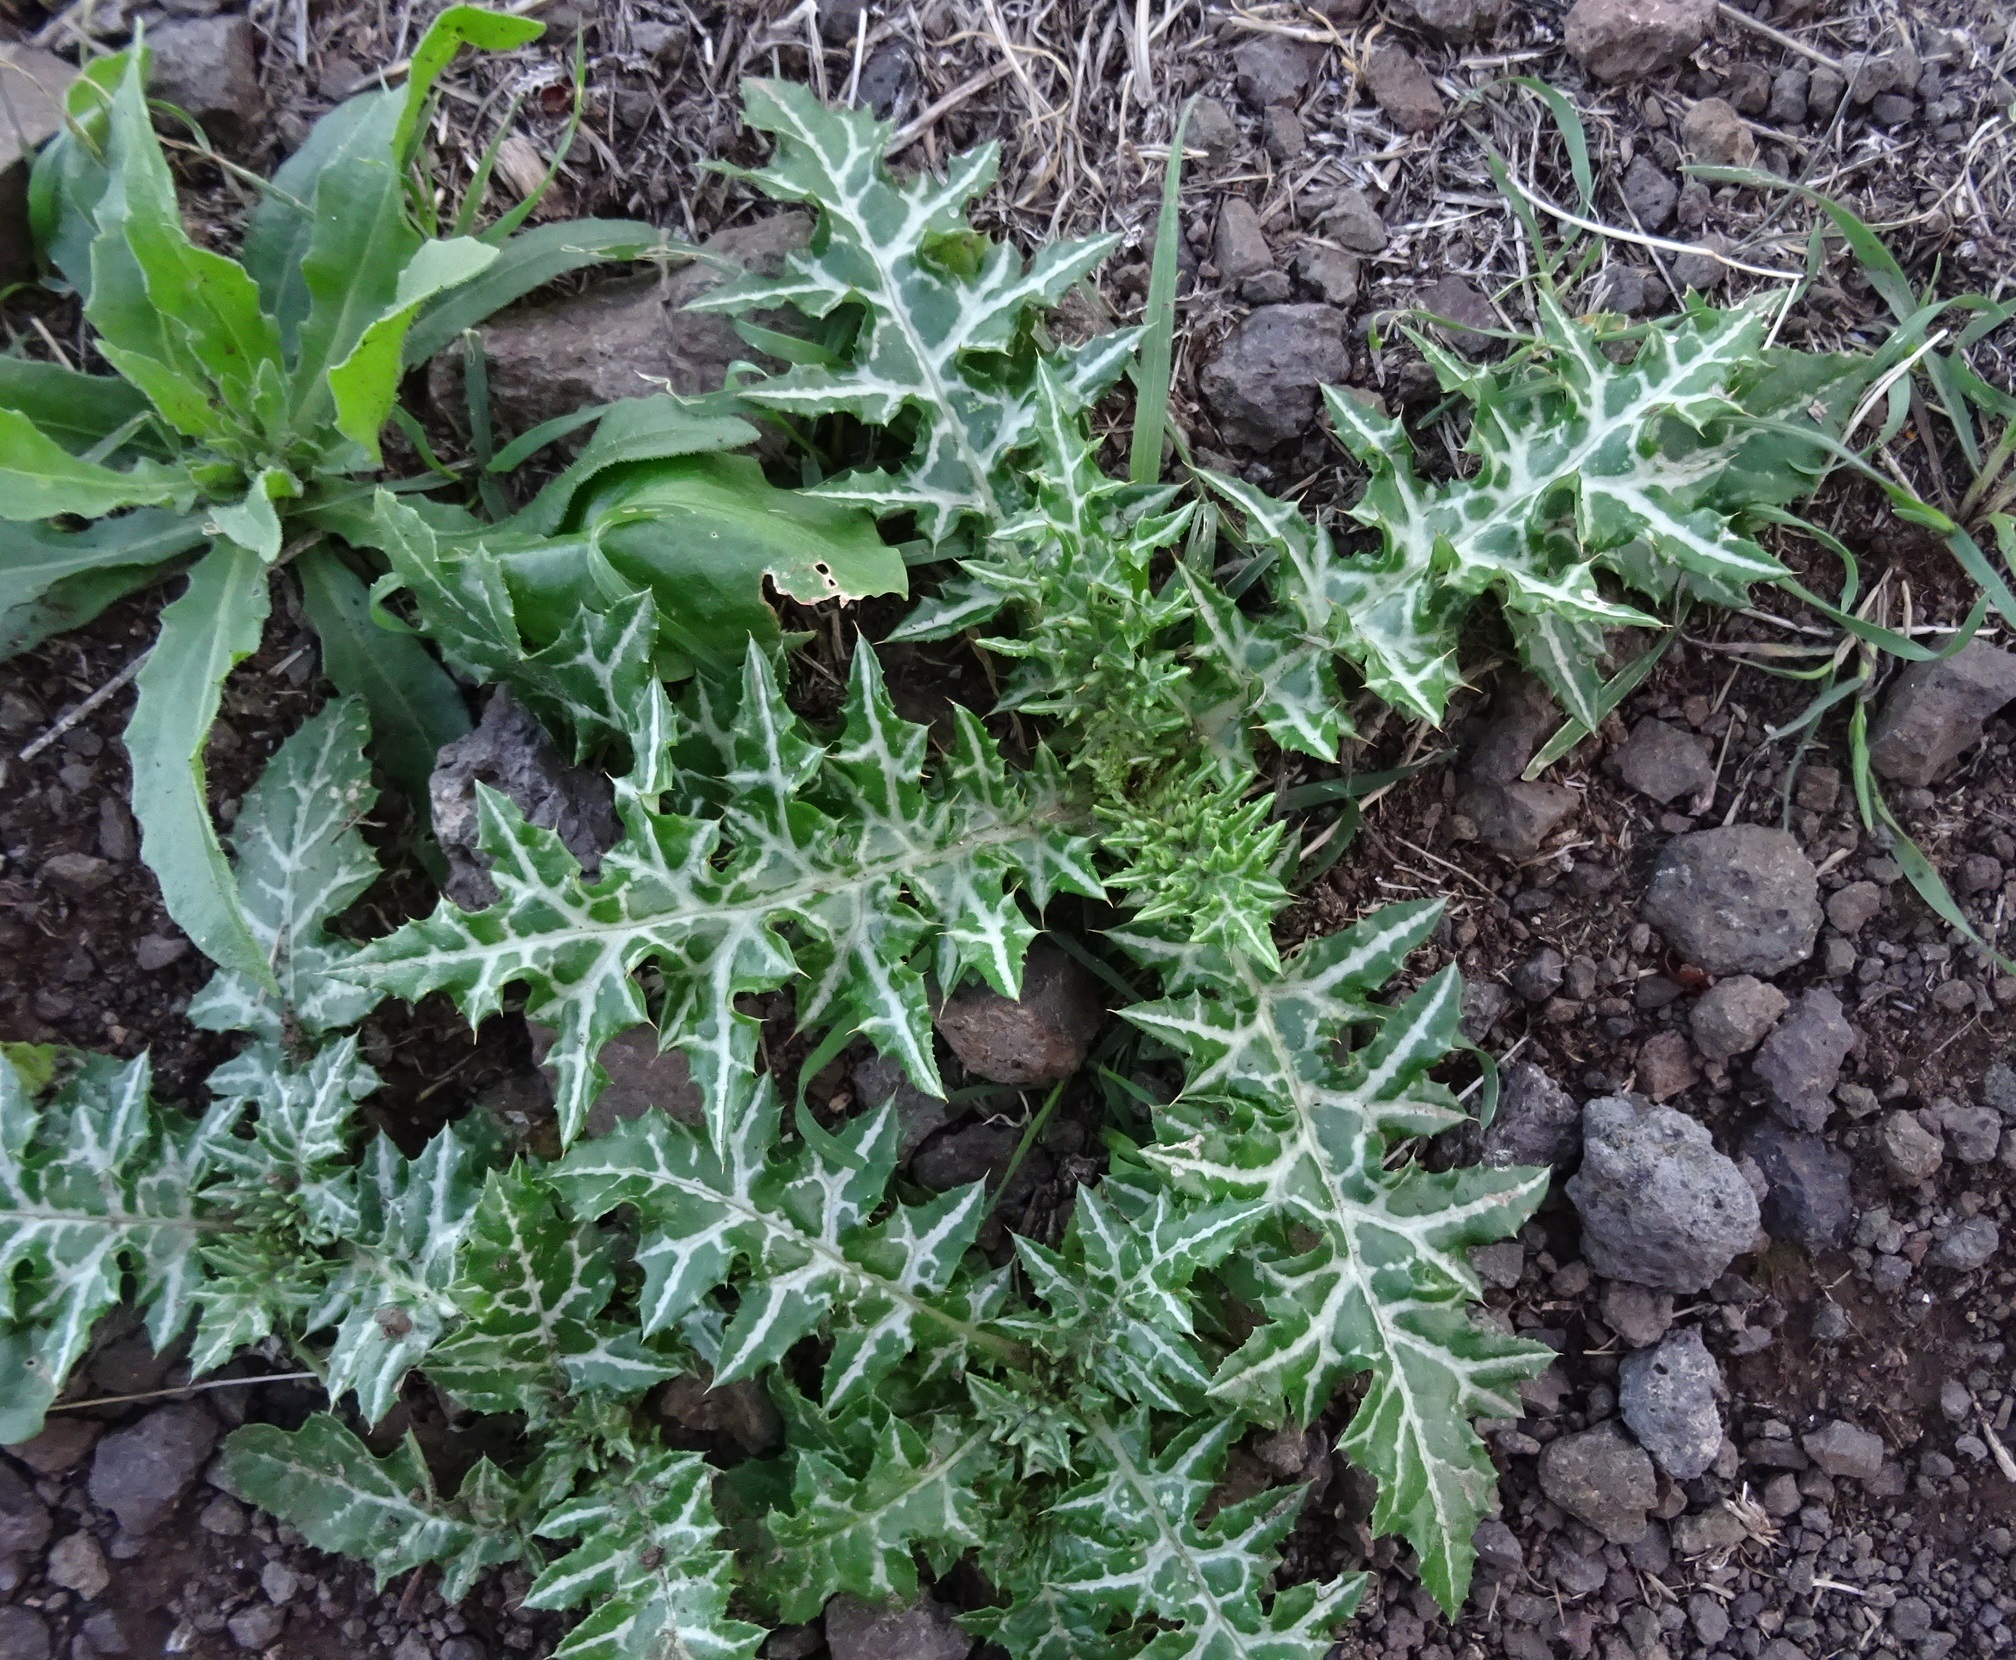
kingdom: Plantae
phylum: Tracheophyta
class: Magnoliopsida
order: Asterales
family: Asteraceae
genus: Galactites
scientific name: Galactites tomentosa
